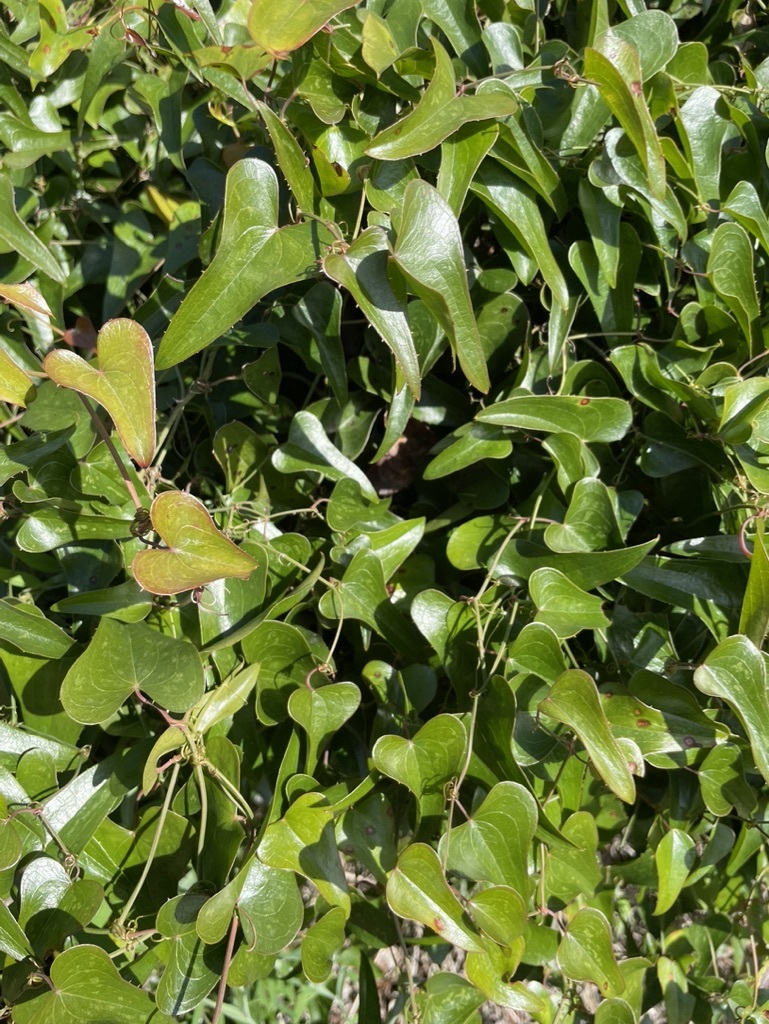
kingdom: Plantae
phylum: Tracheophyta
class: Liliopsida
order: Liliales
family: Smilacaceae
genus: Smilax
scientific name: Smilax aspera
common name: Common smilax
